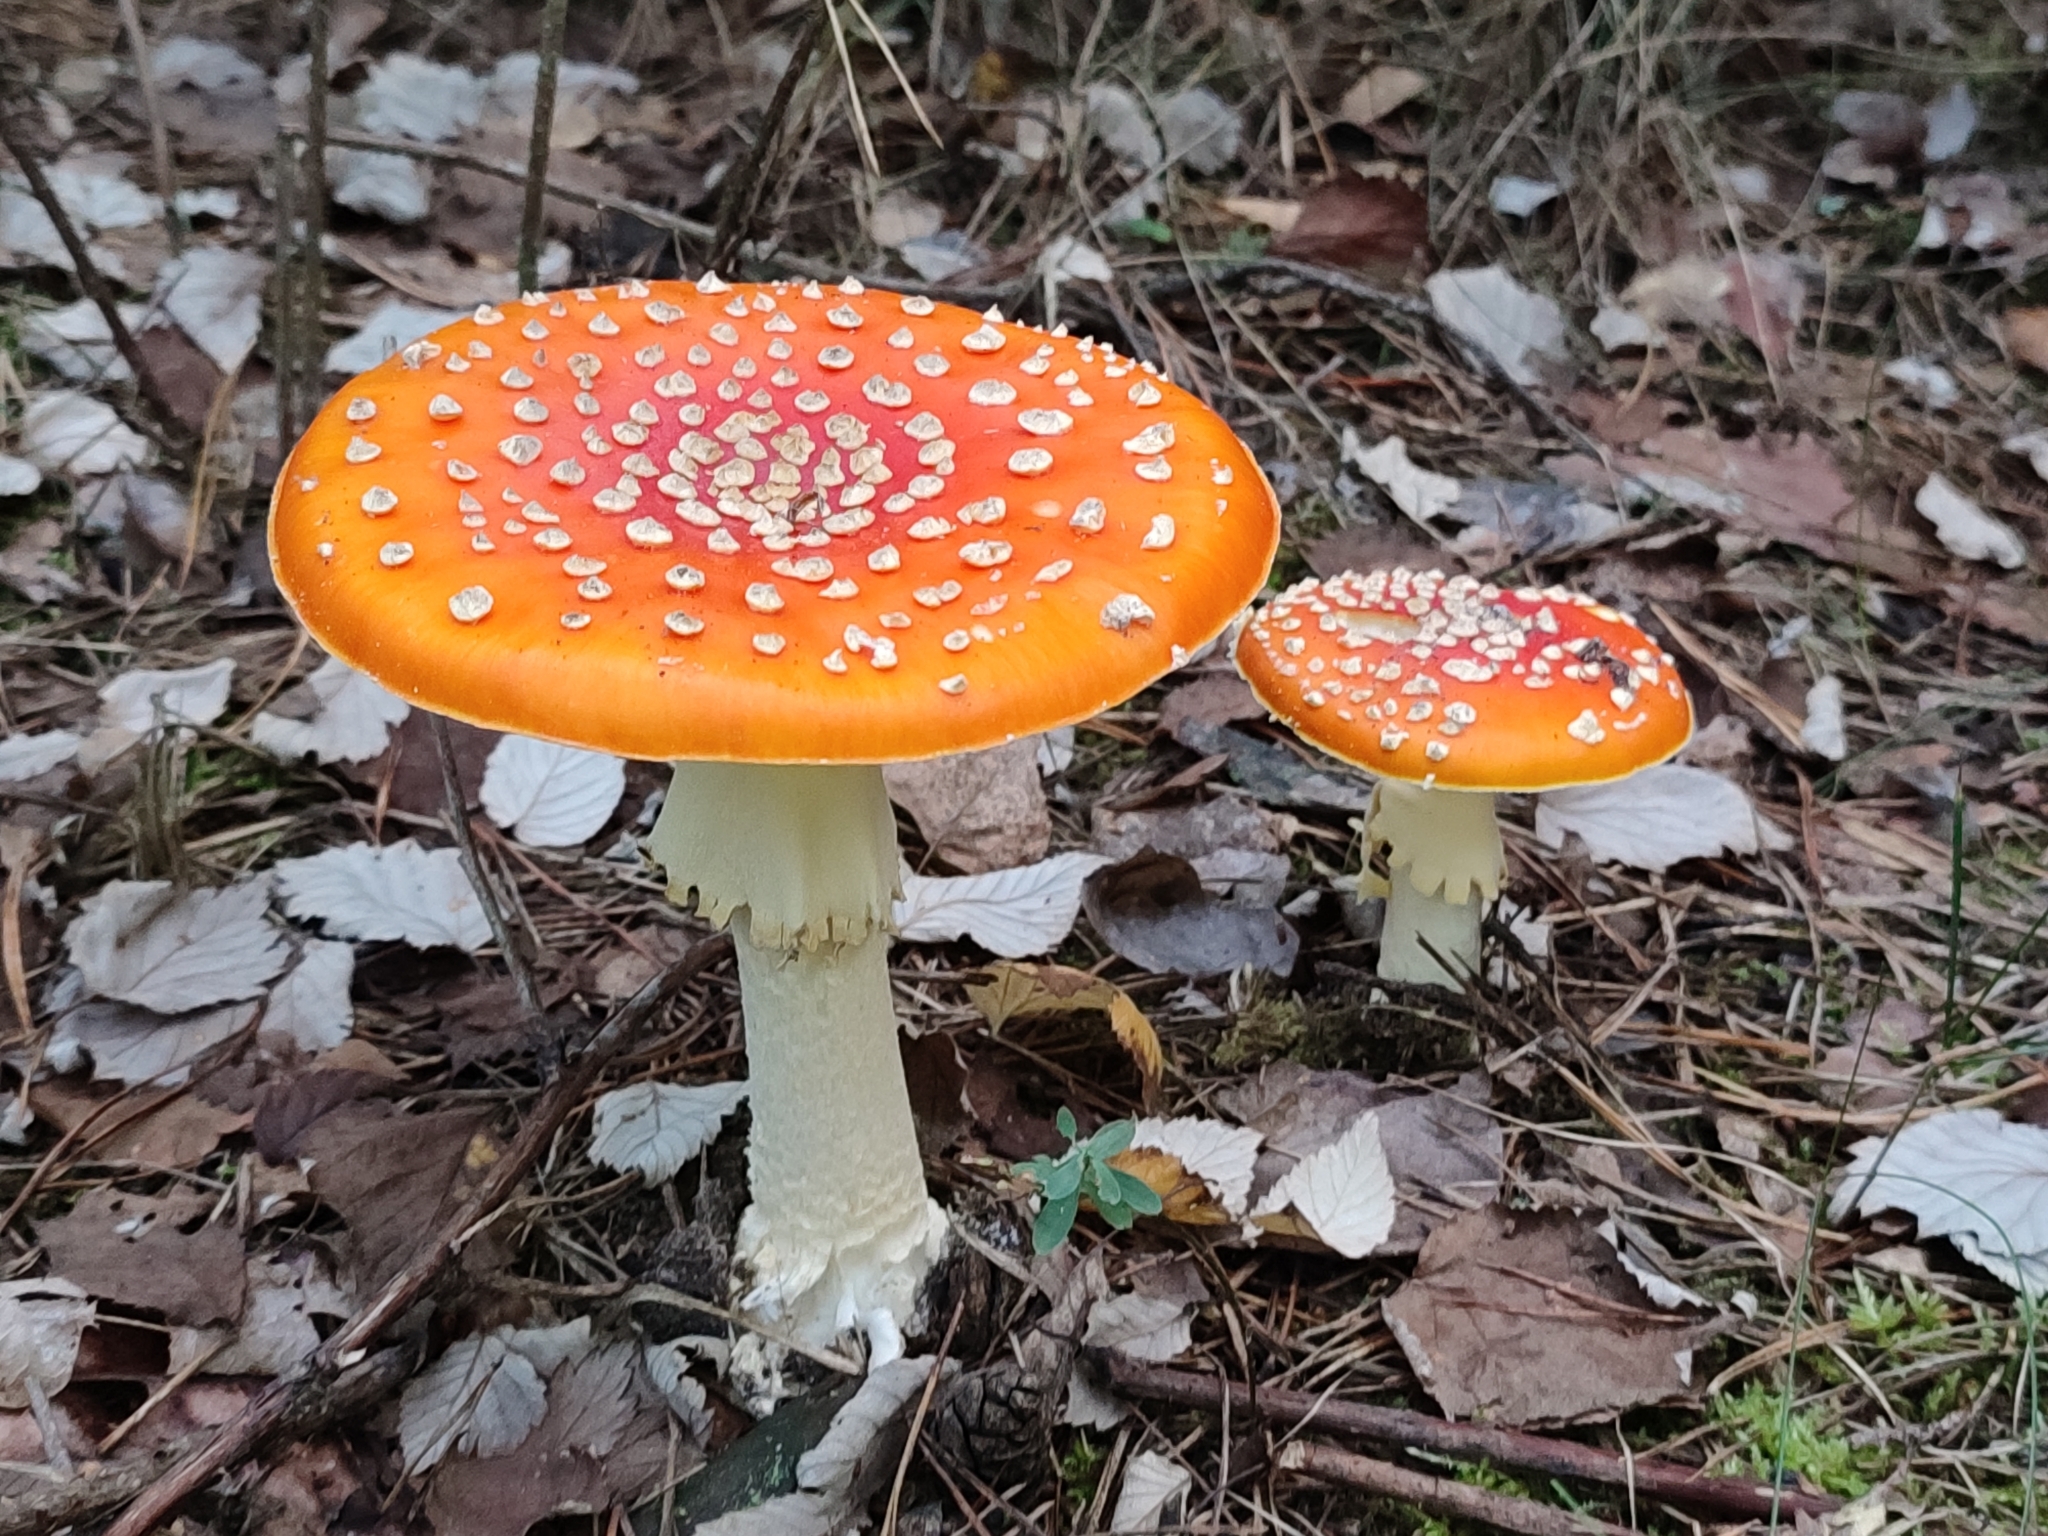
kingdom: Fungi
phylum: Basidiomycota
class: Agaricomycetes
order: Agaricales
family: Amanitaceae
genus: Amanita
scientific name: Amanita muscaria
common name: Fly agaric
